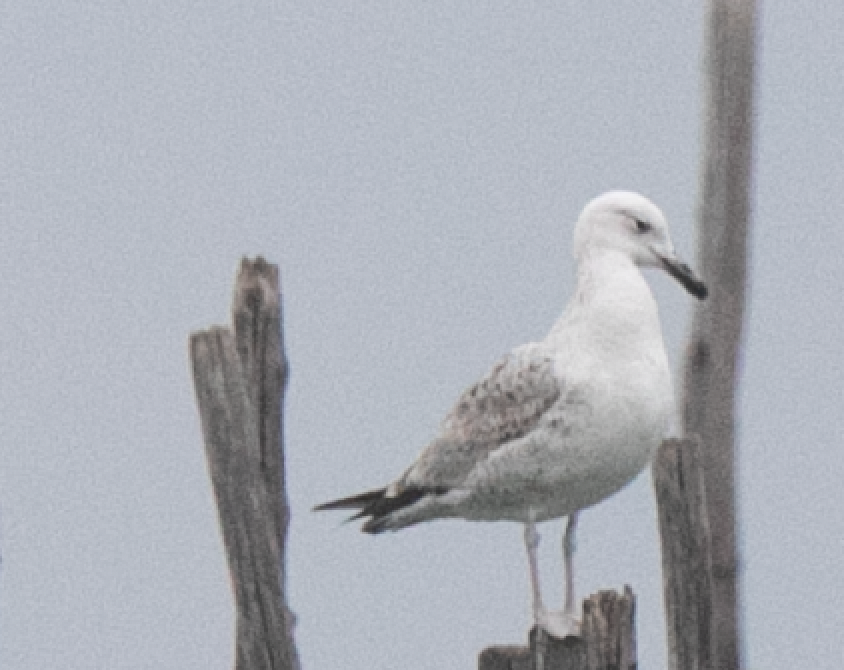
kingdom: Animalia
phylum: Chordata
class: Aves
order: Charadriiformes
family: Laridae
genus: Larus
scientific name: Larus cachinnans
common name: Caspian gull
